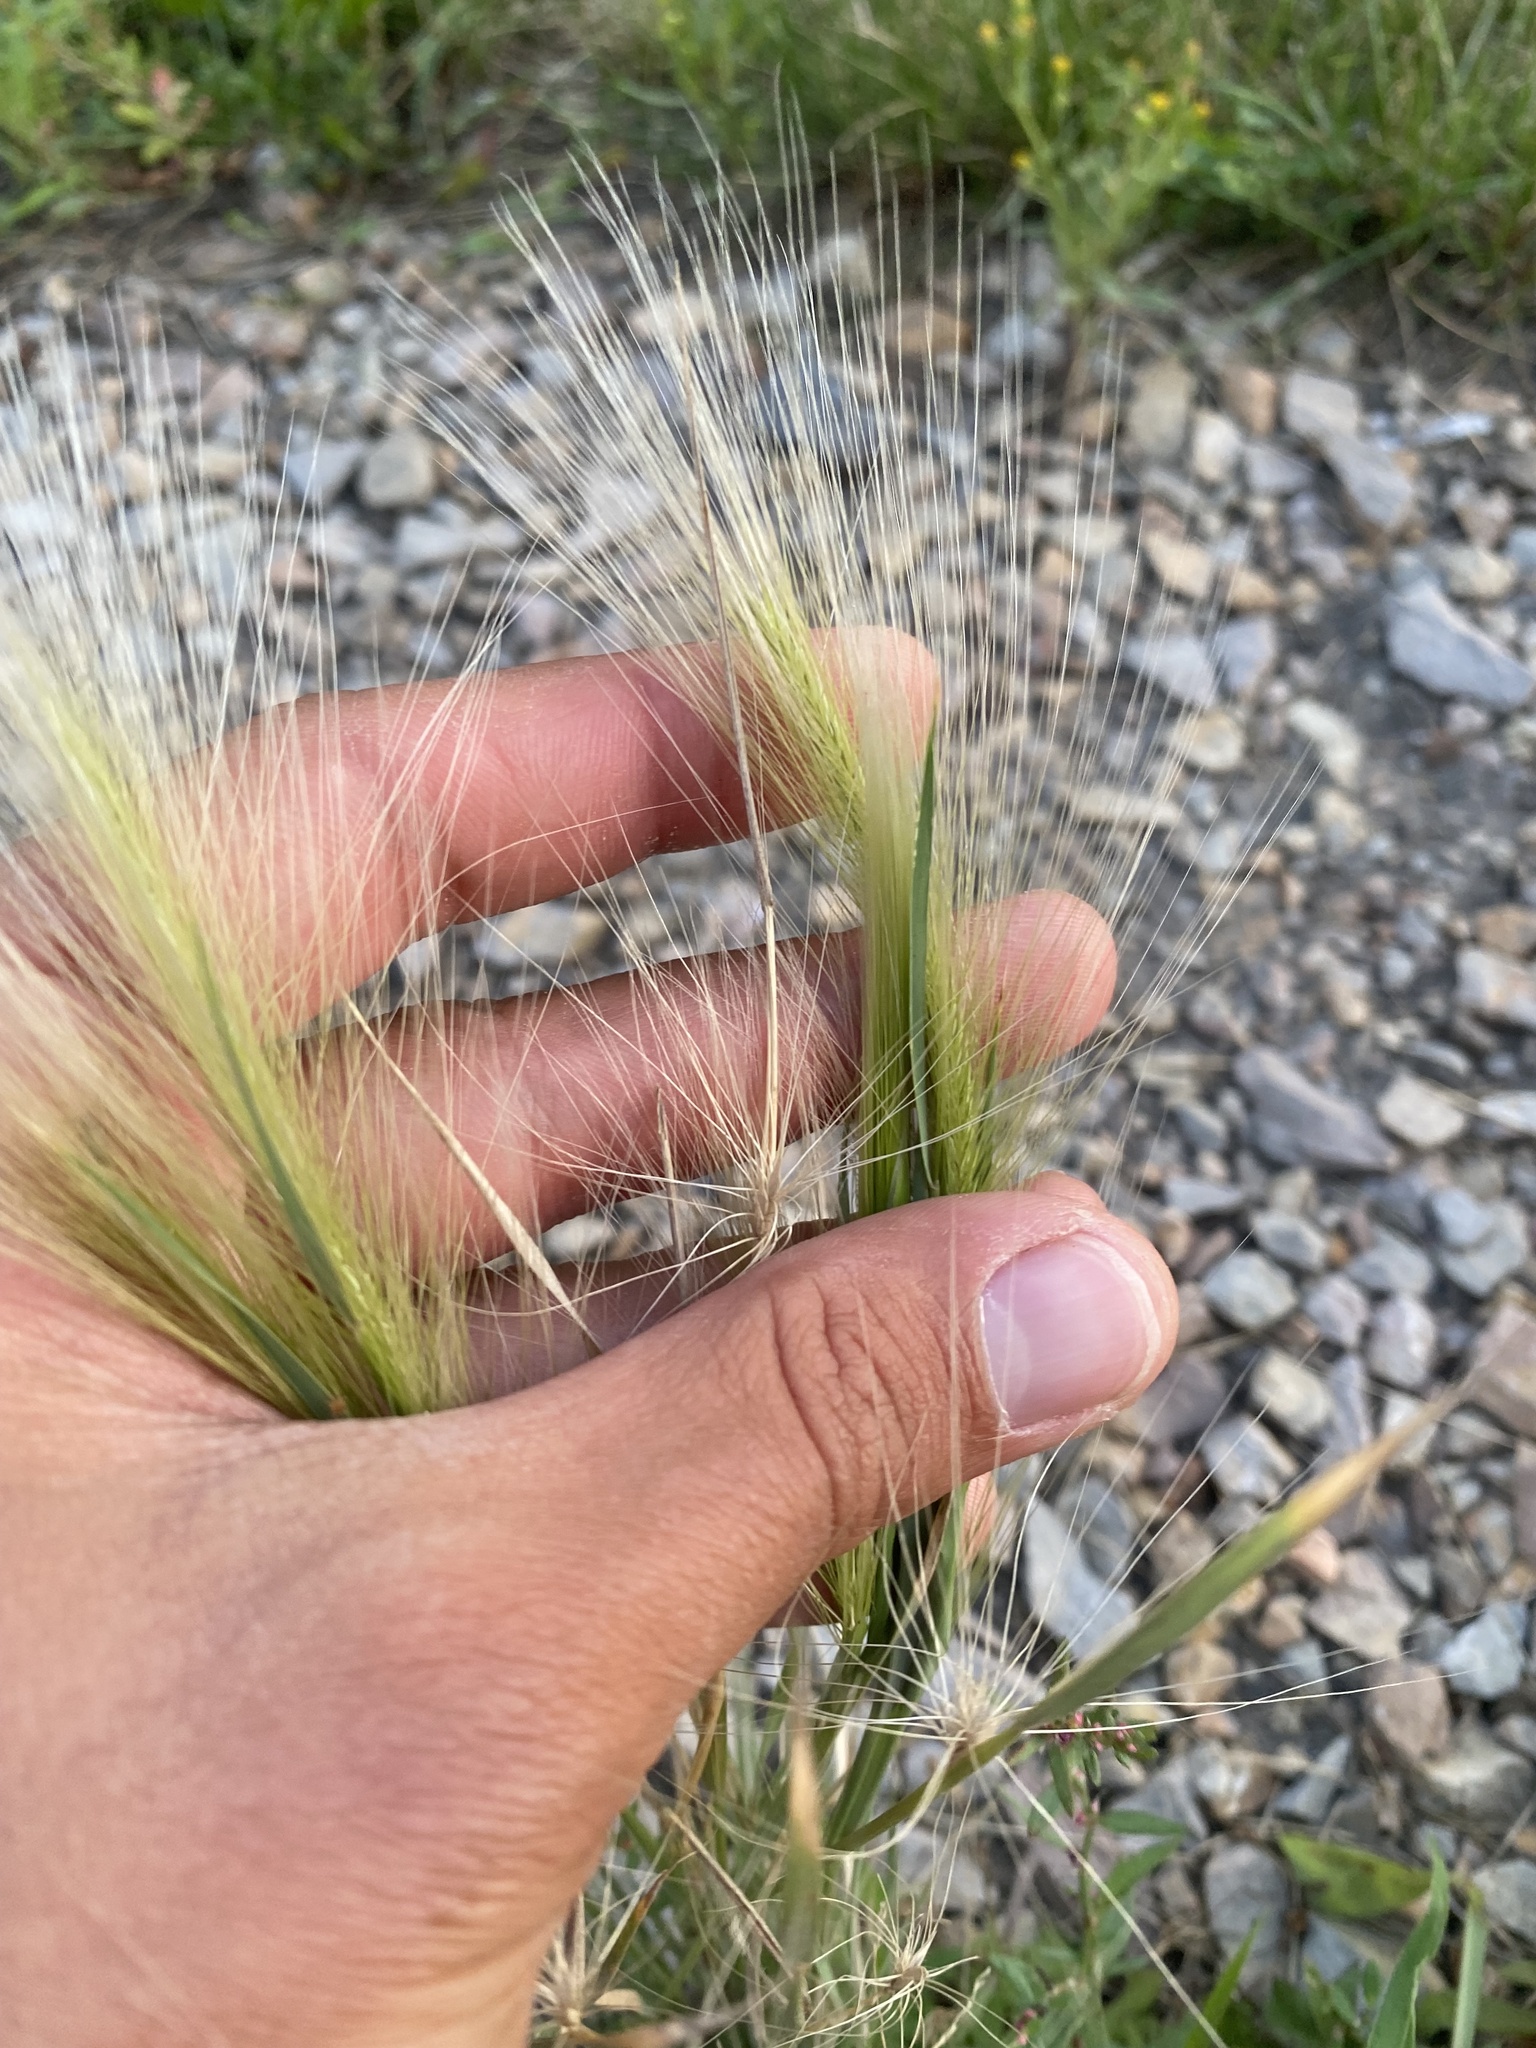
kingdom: Plantae
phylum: Tracheophyta
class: Liliopsida
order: Poales
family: Poaceae
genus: Hordeum
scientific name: Hordeum jubatum
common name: Foxtail barley
